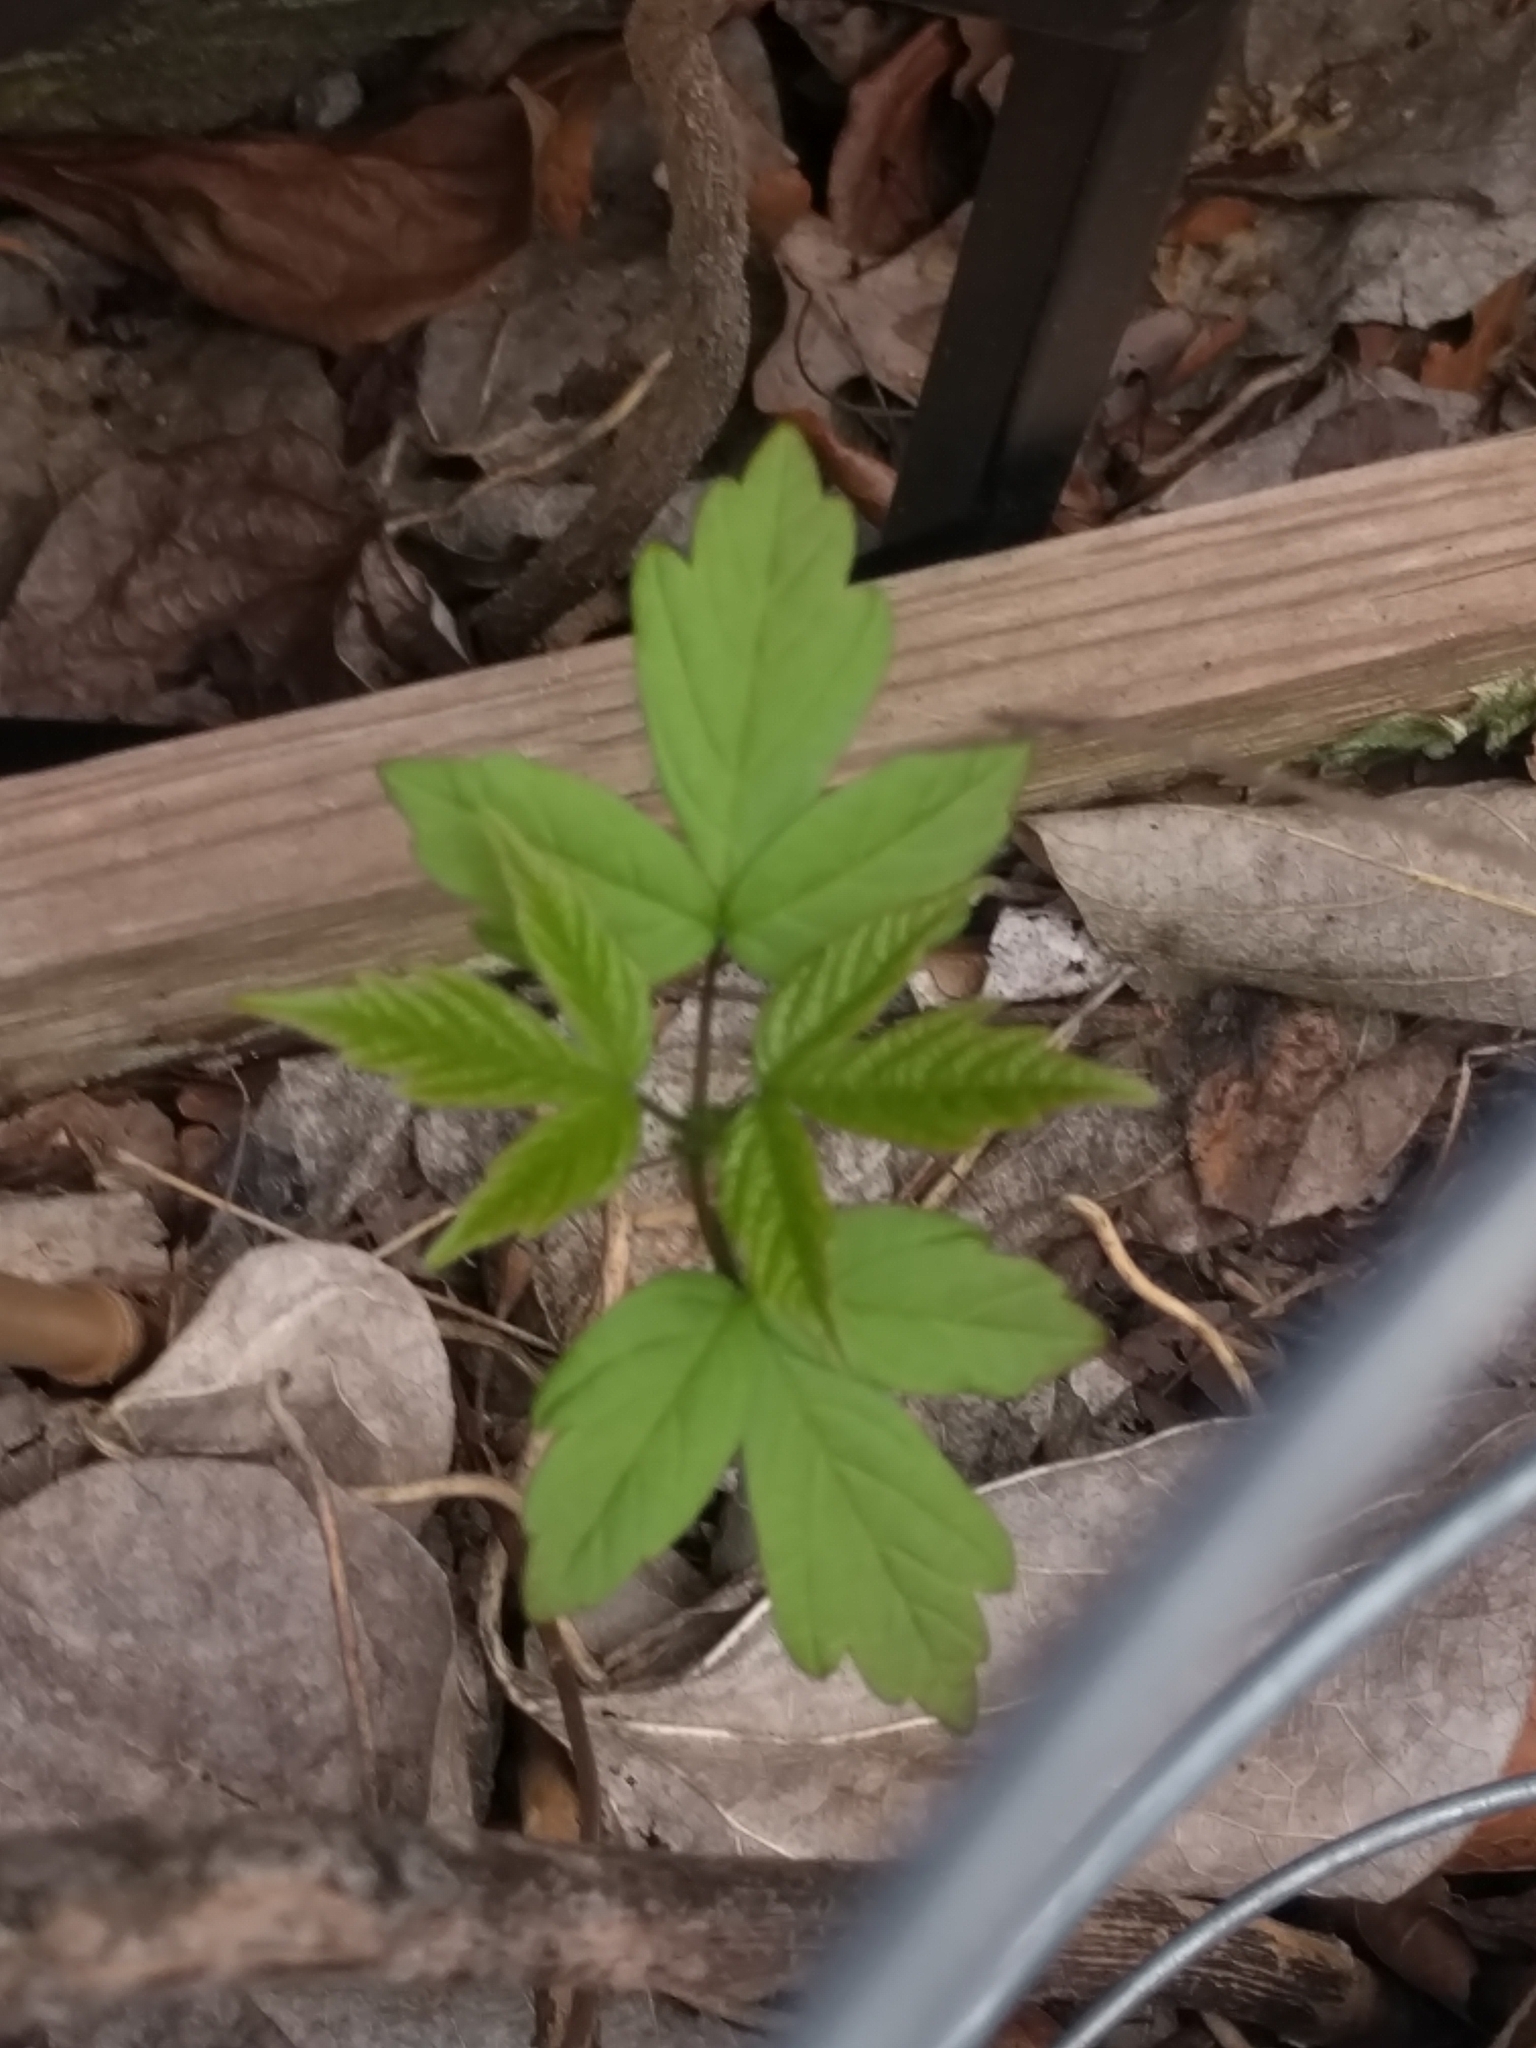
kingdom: Plantae
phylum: Tracheophyta
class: Magnoliopsida
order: Sapindales
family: Sapindaceae
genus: Acer
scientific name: Acer negundo
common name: Ashleaf maple
